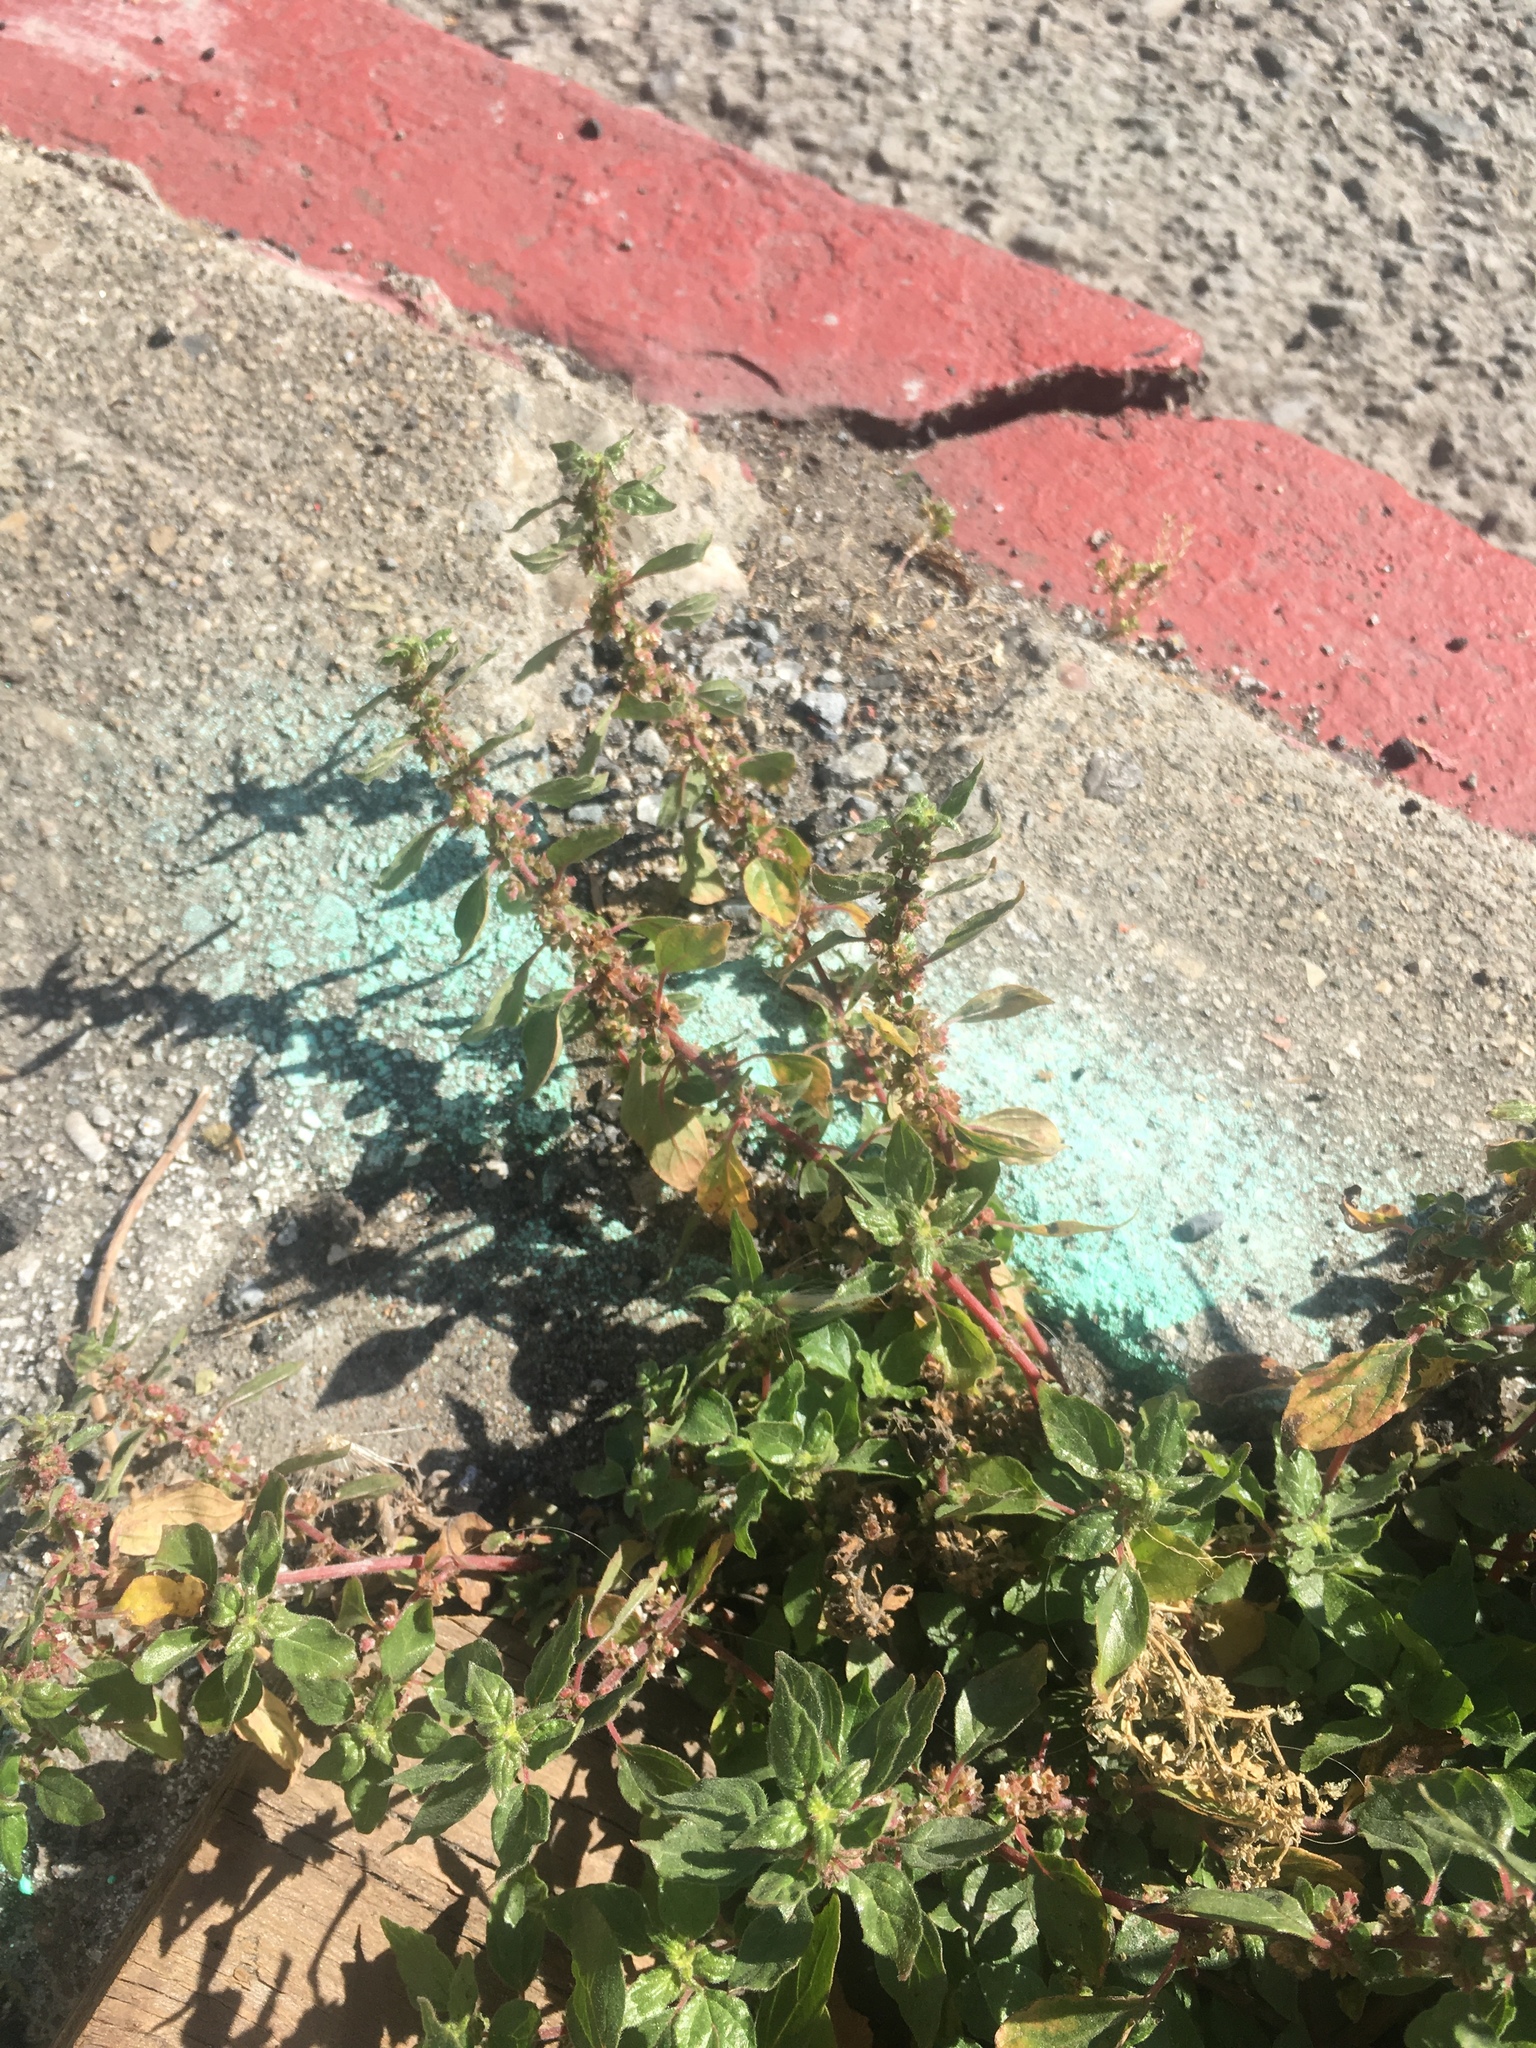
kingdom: Plantae
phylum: Tracheophyta
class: Magnoliopsida
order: Rosales
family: Urticaceae
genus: Parietaria
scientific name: Parietaria judaica
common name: Pellitory-of-the-wall
